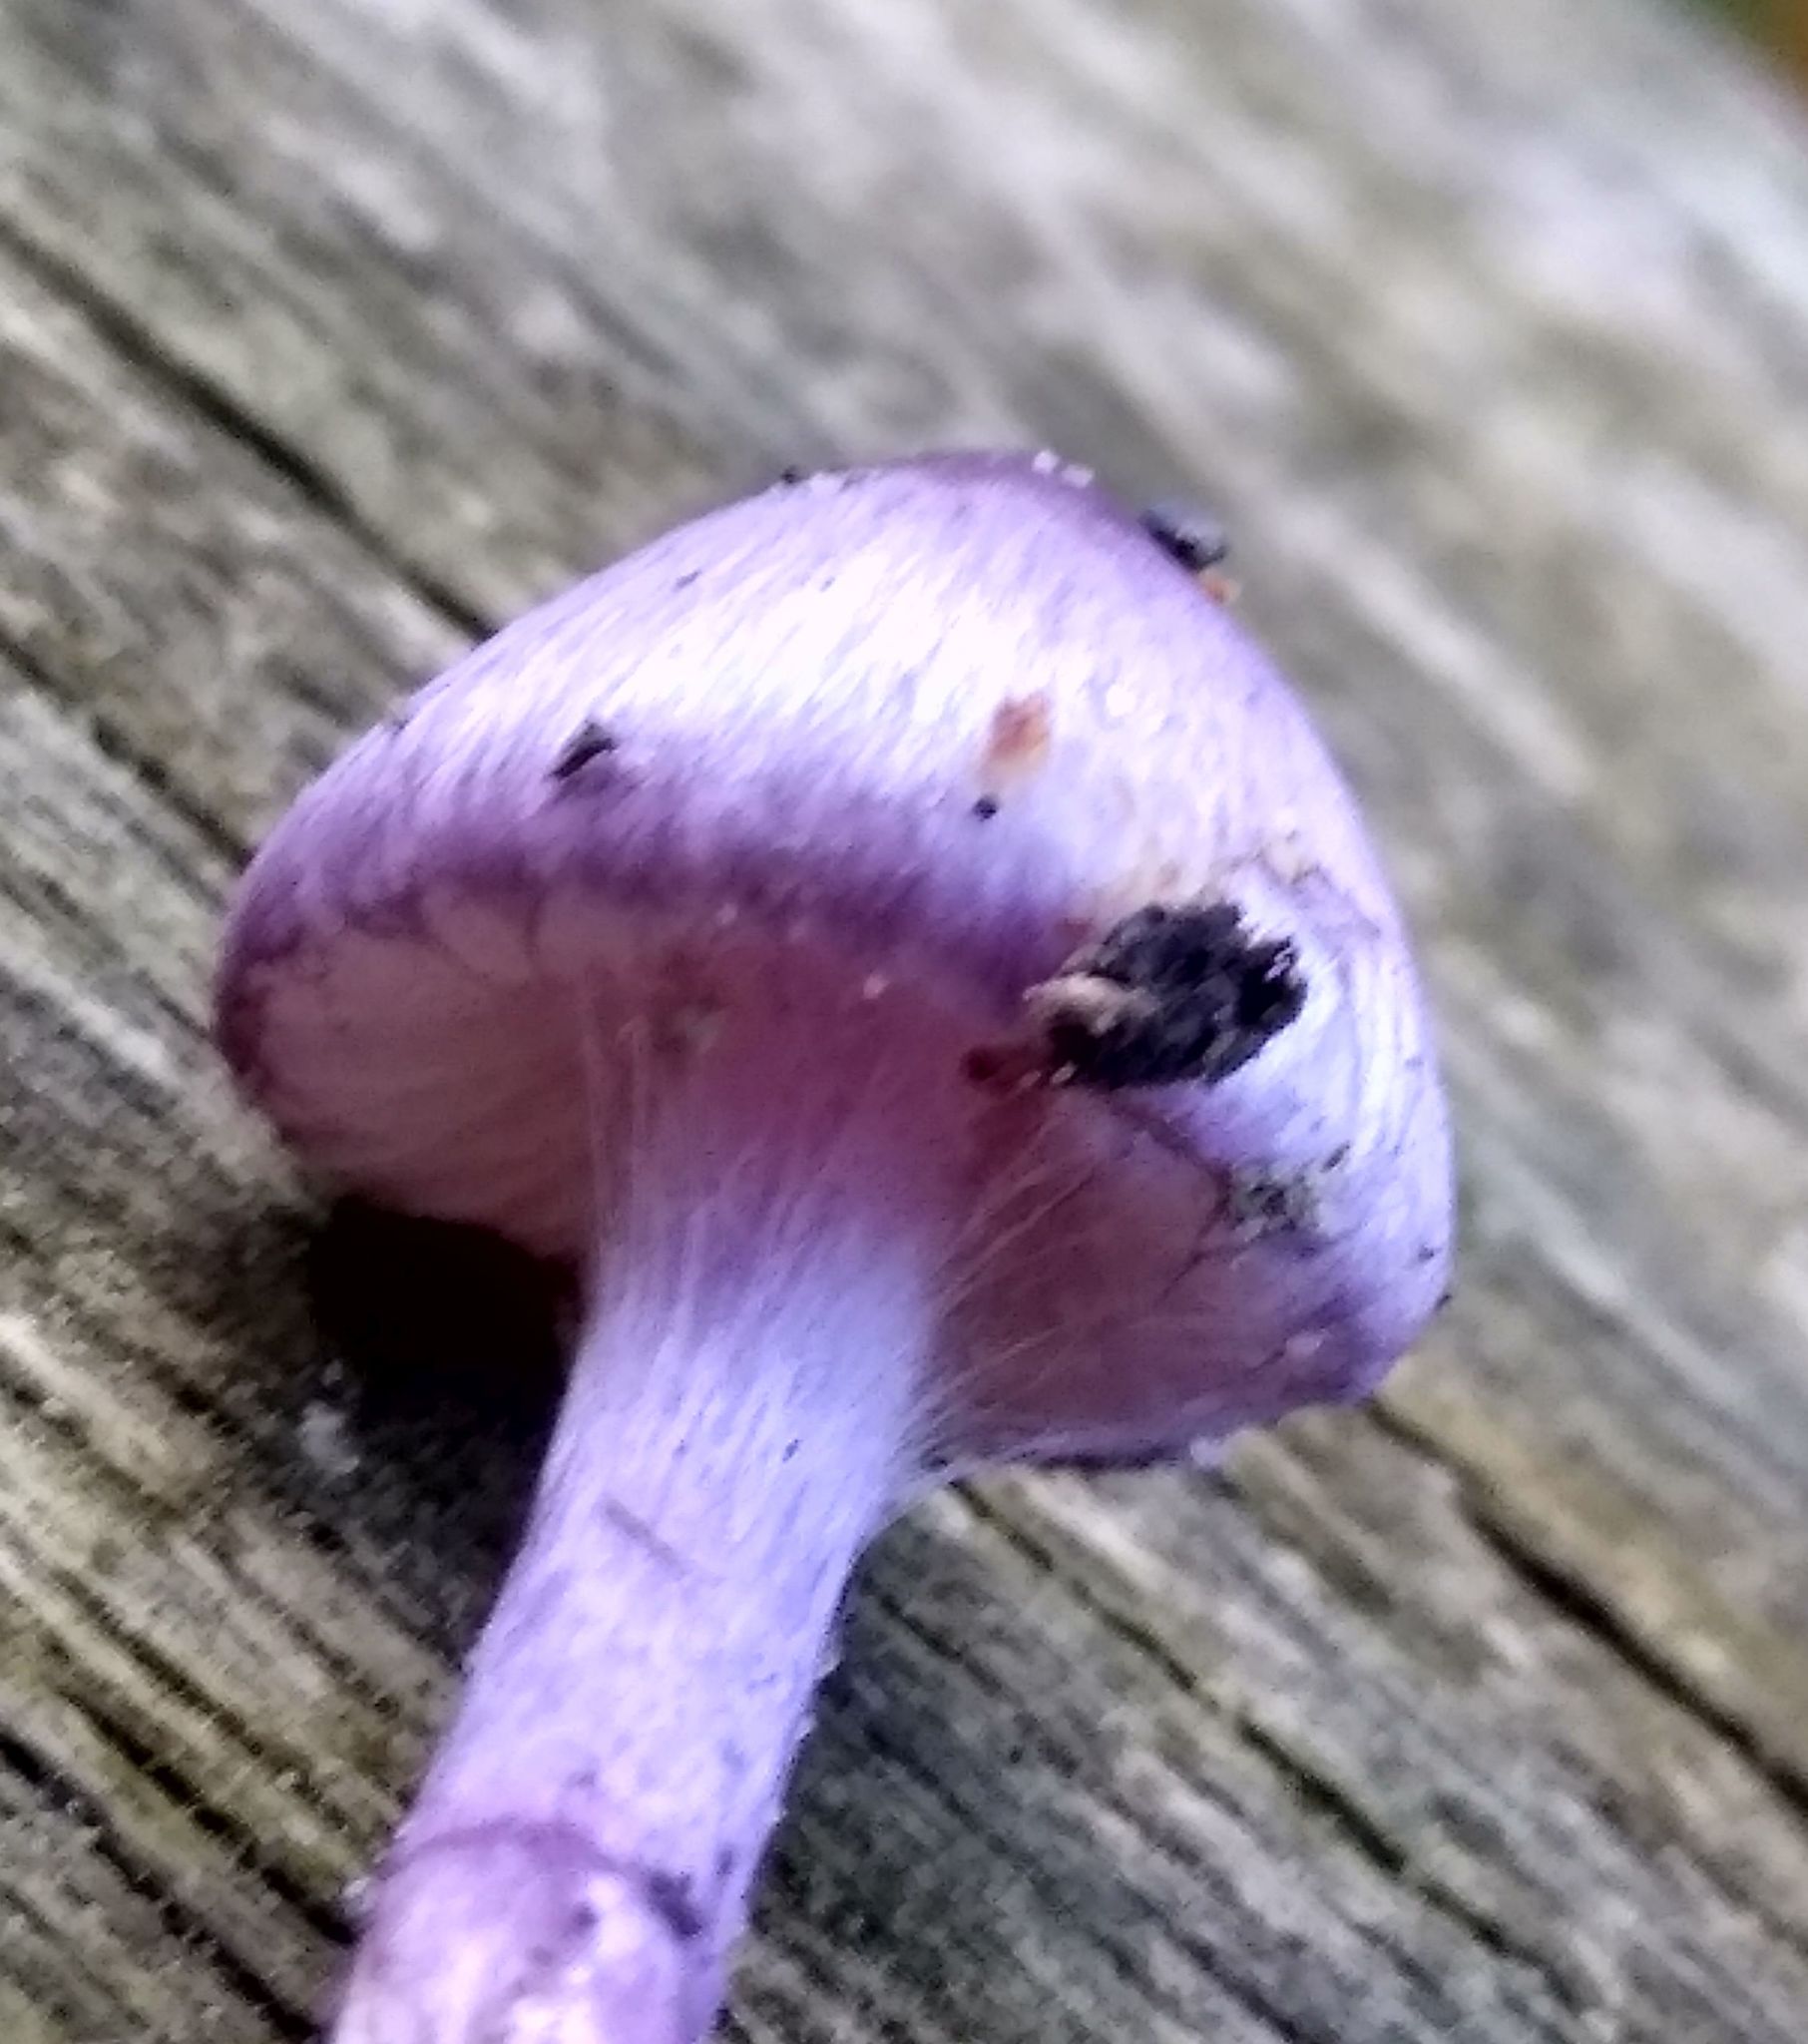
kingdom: Fungi
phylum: Basidiomycota
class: Agaricomycetes
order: Agaricales
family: Inocybaceae
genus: Inocybe
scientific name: Inocybe geophylla
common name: White fibrecap
